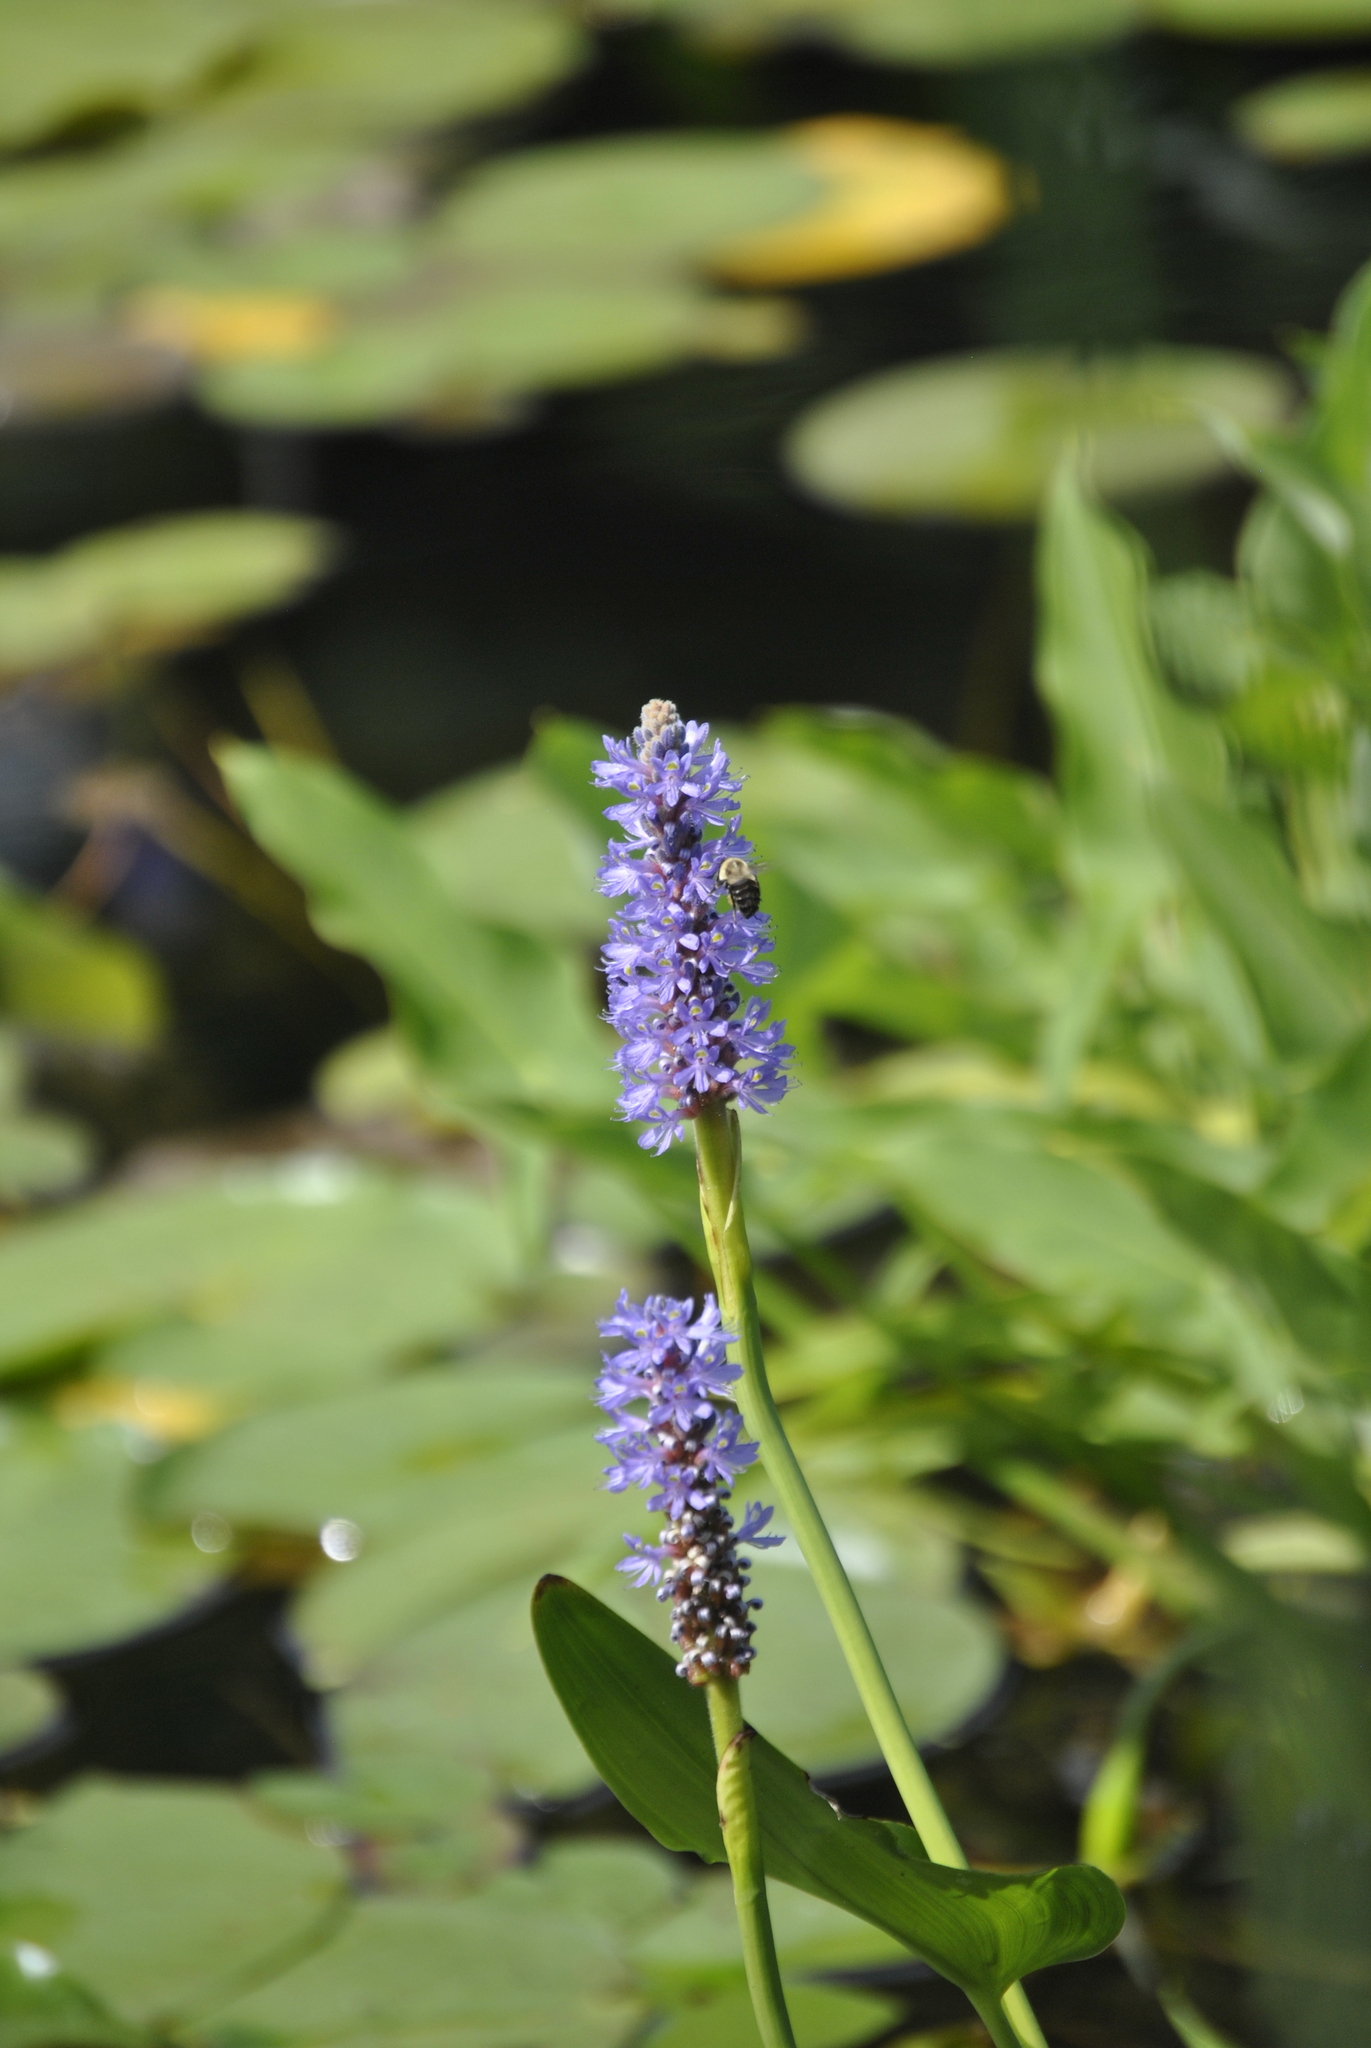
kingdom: Plantae
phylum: Tracheophyta
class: Liliopsida
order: Commelinales
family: Pontederiaceae
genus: Pontederia
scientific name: Pontederia cordata
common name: Pickerelweed
